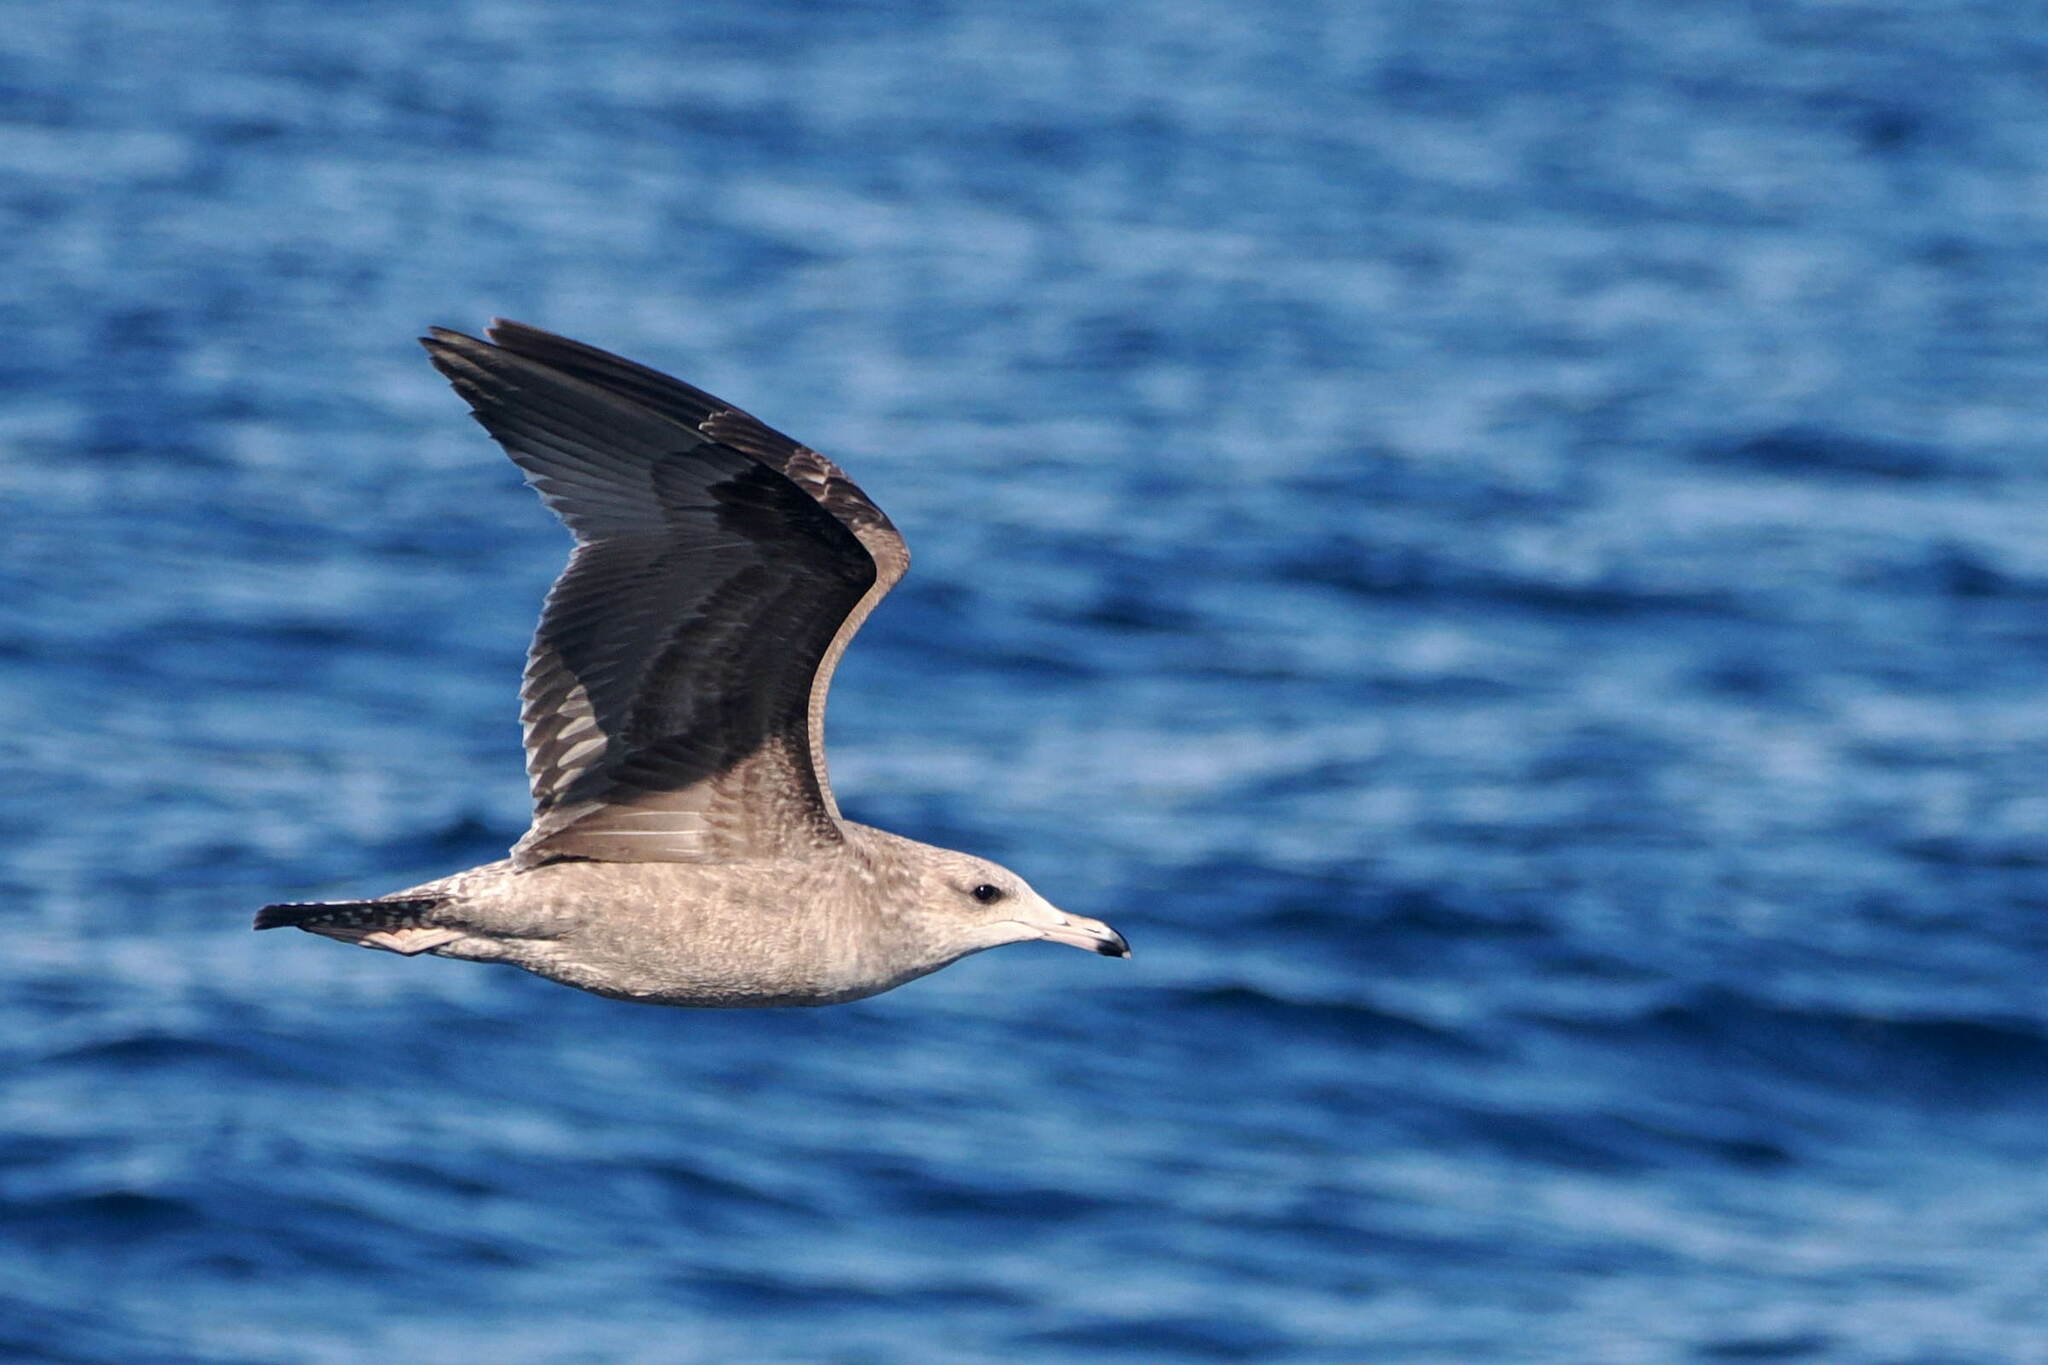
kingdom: Animalia
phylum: Chordata
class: Aves
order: Charadriiformes
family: Laridae
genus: Larus
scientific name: Larus californicus
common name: California gull
